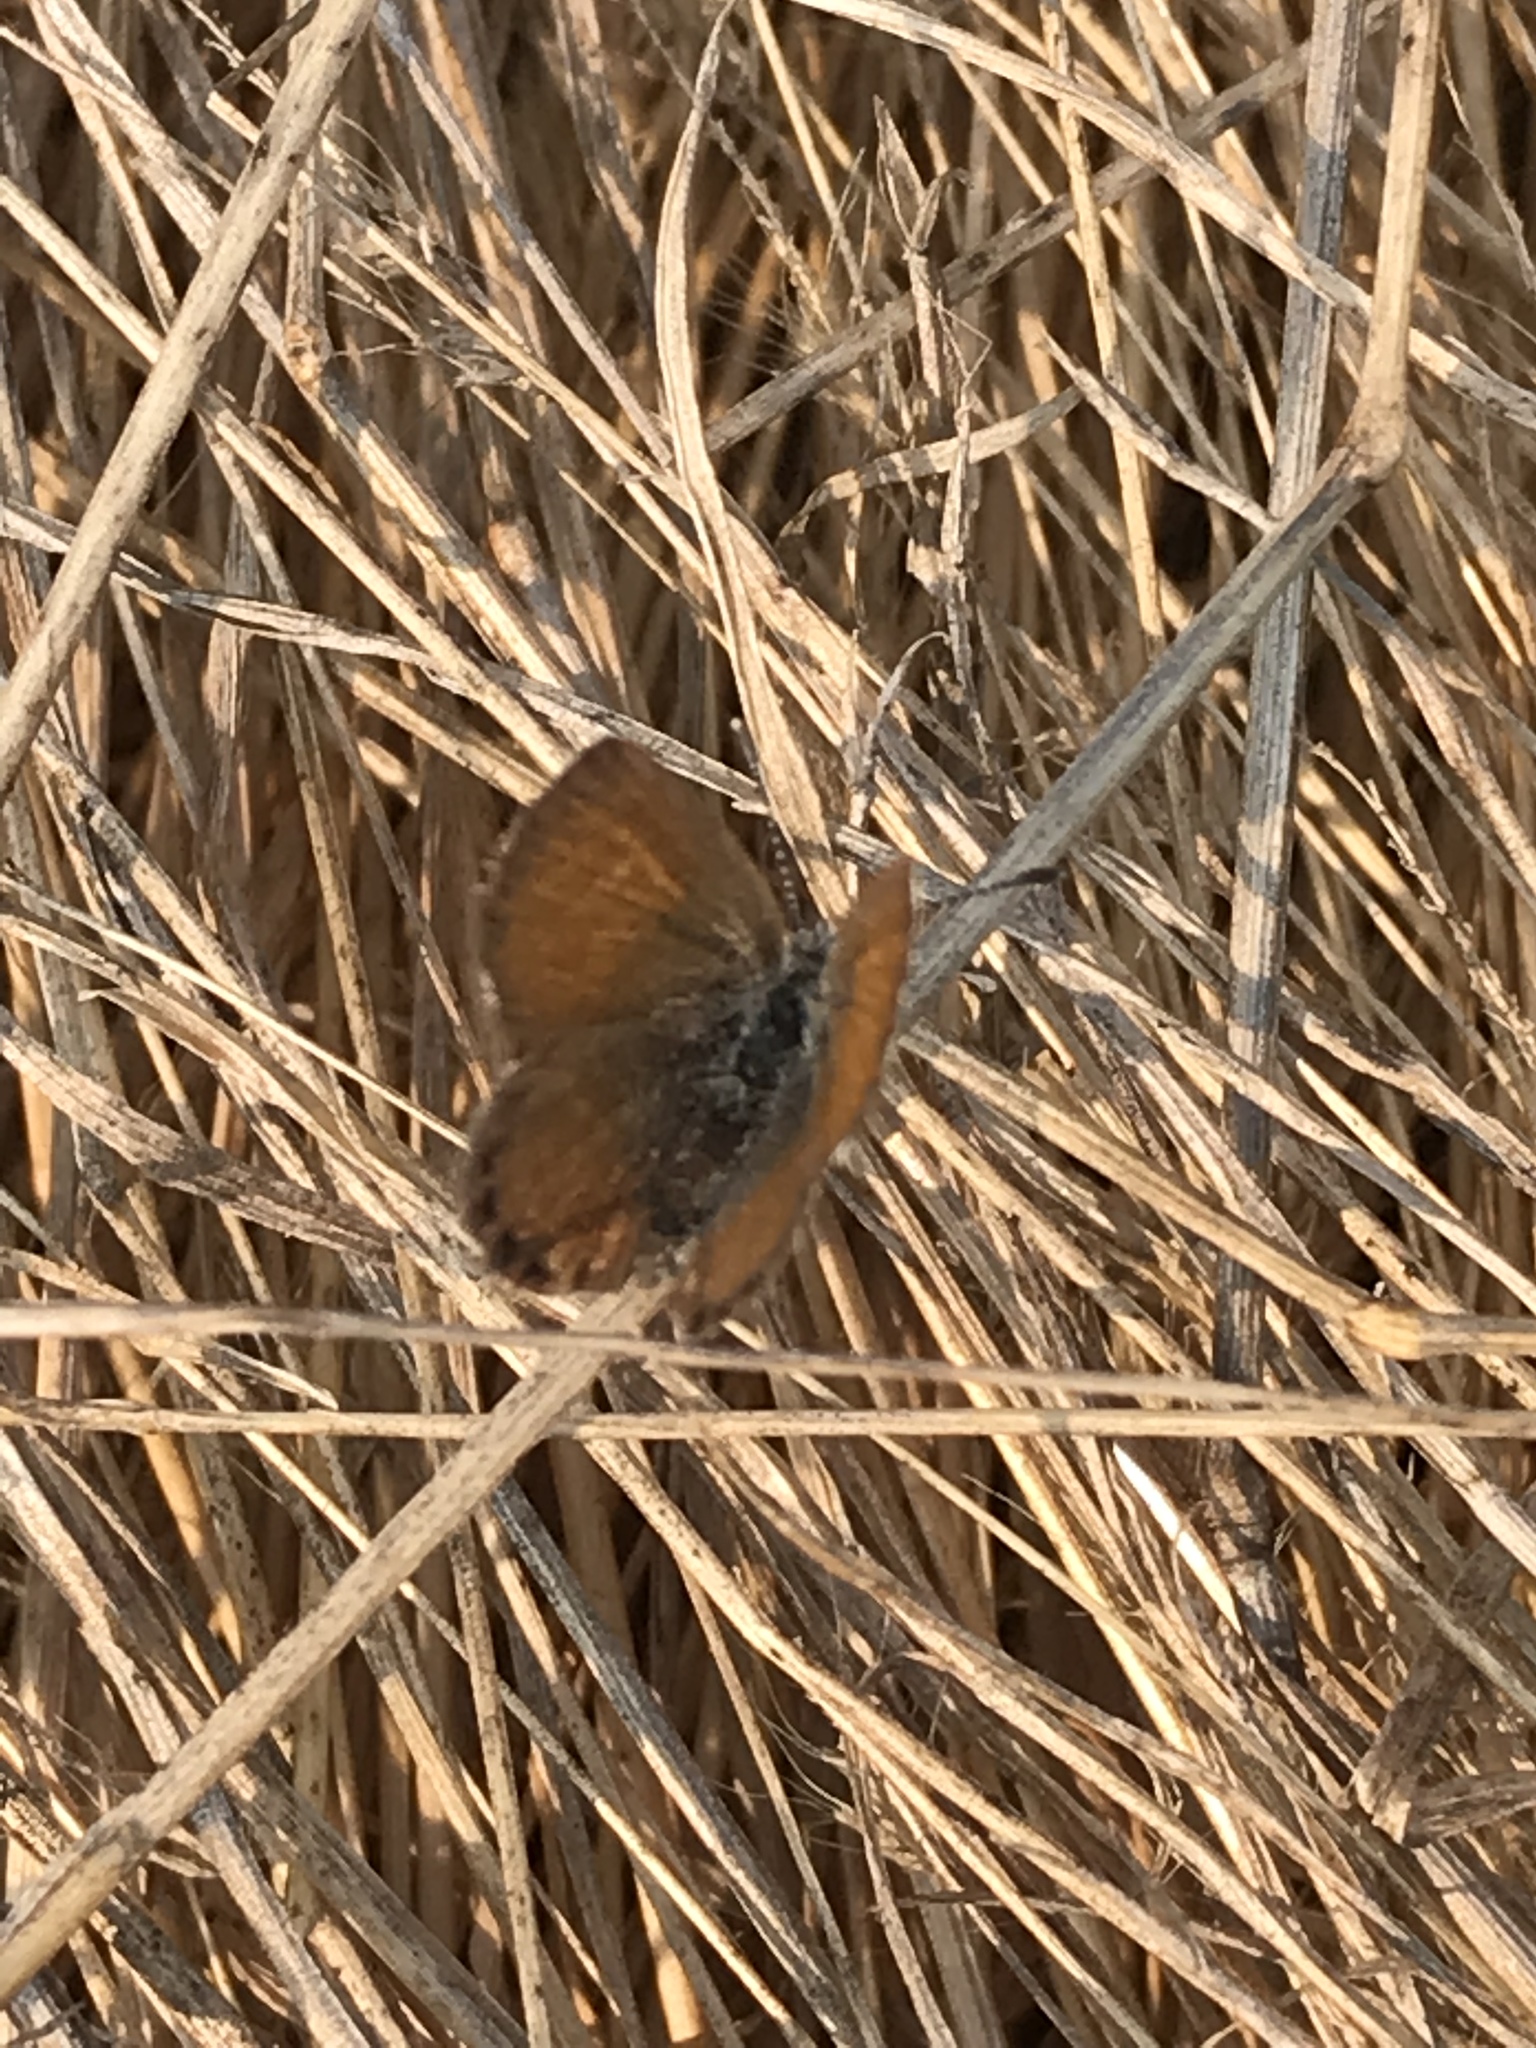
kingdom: Animalia
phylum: Arthropoda
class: Insecta
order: Lepidoptera
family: Lycaenidae
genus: Brephidium
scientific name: Brephidium exilis
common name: Pygmy blue
